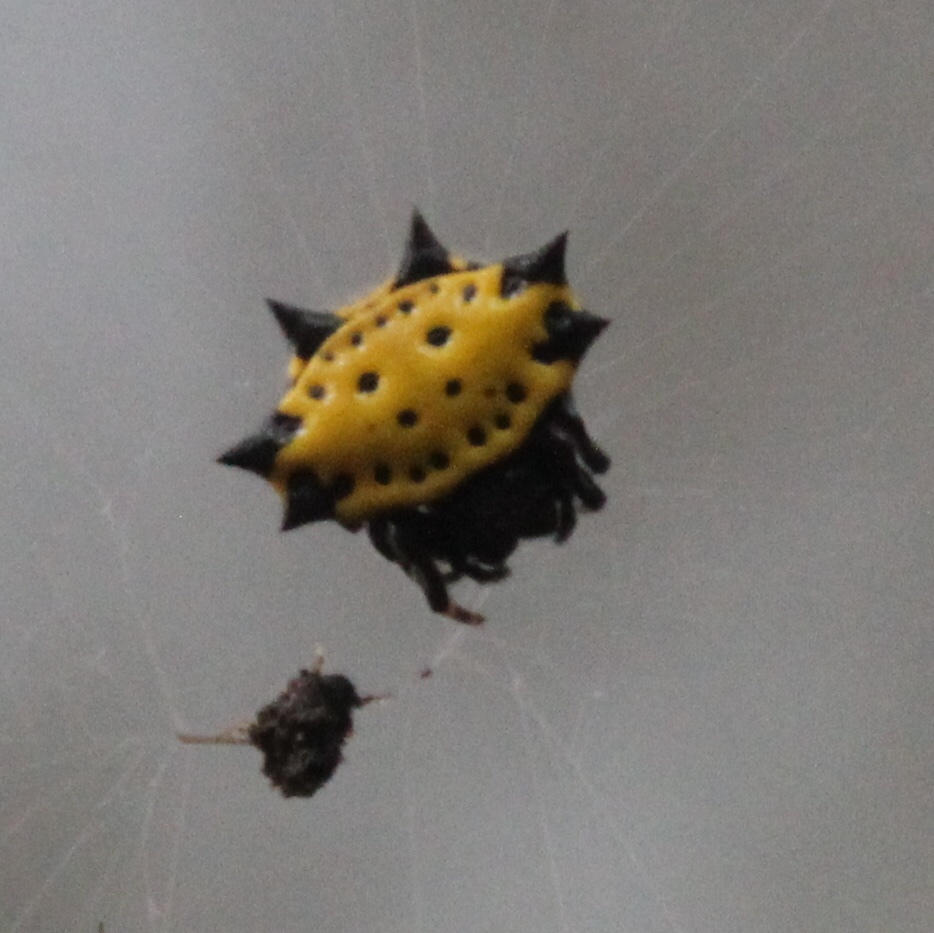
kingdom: Animalia
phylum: Arthropoda
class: Arachnida
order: Araneae
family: Araneidae
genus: Gasteracantha
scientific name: Gasteracantha cancriformis
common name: Orb weavers
